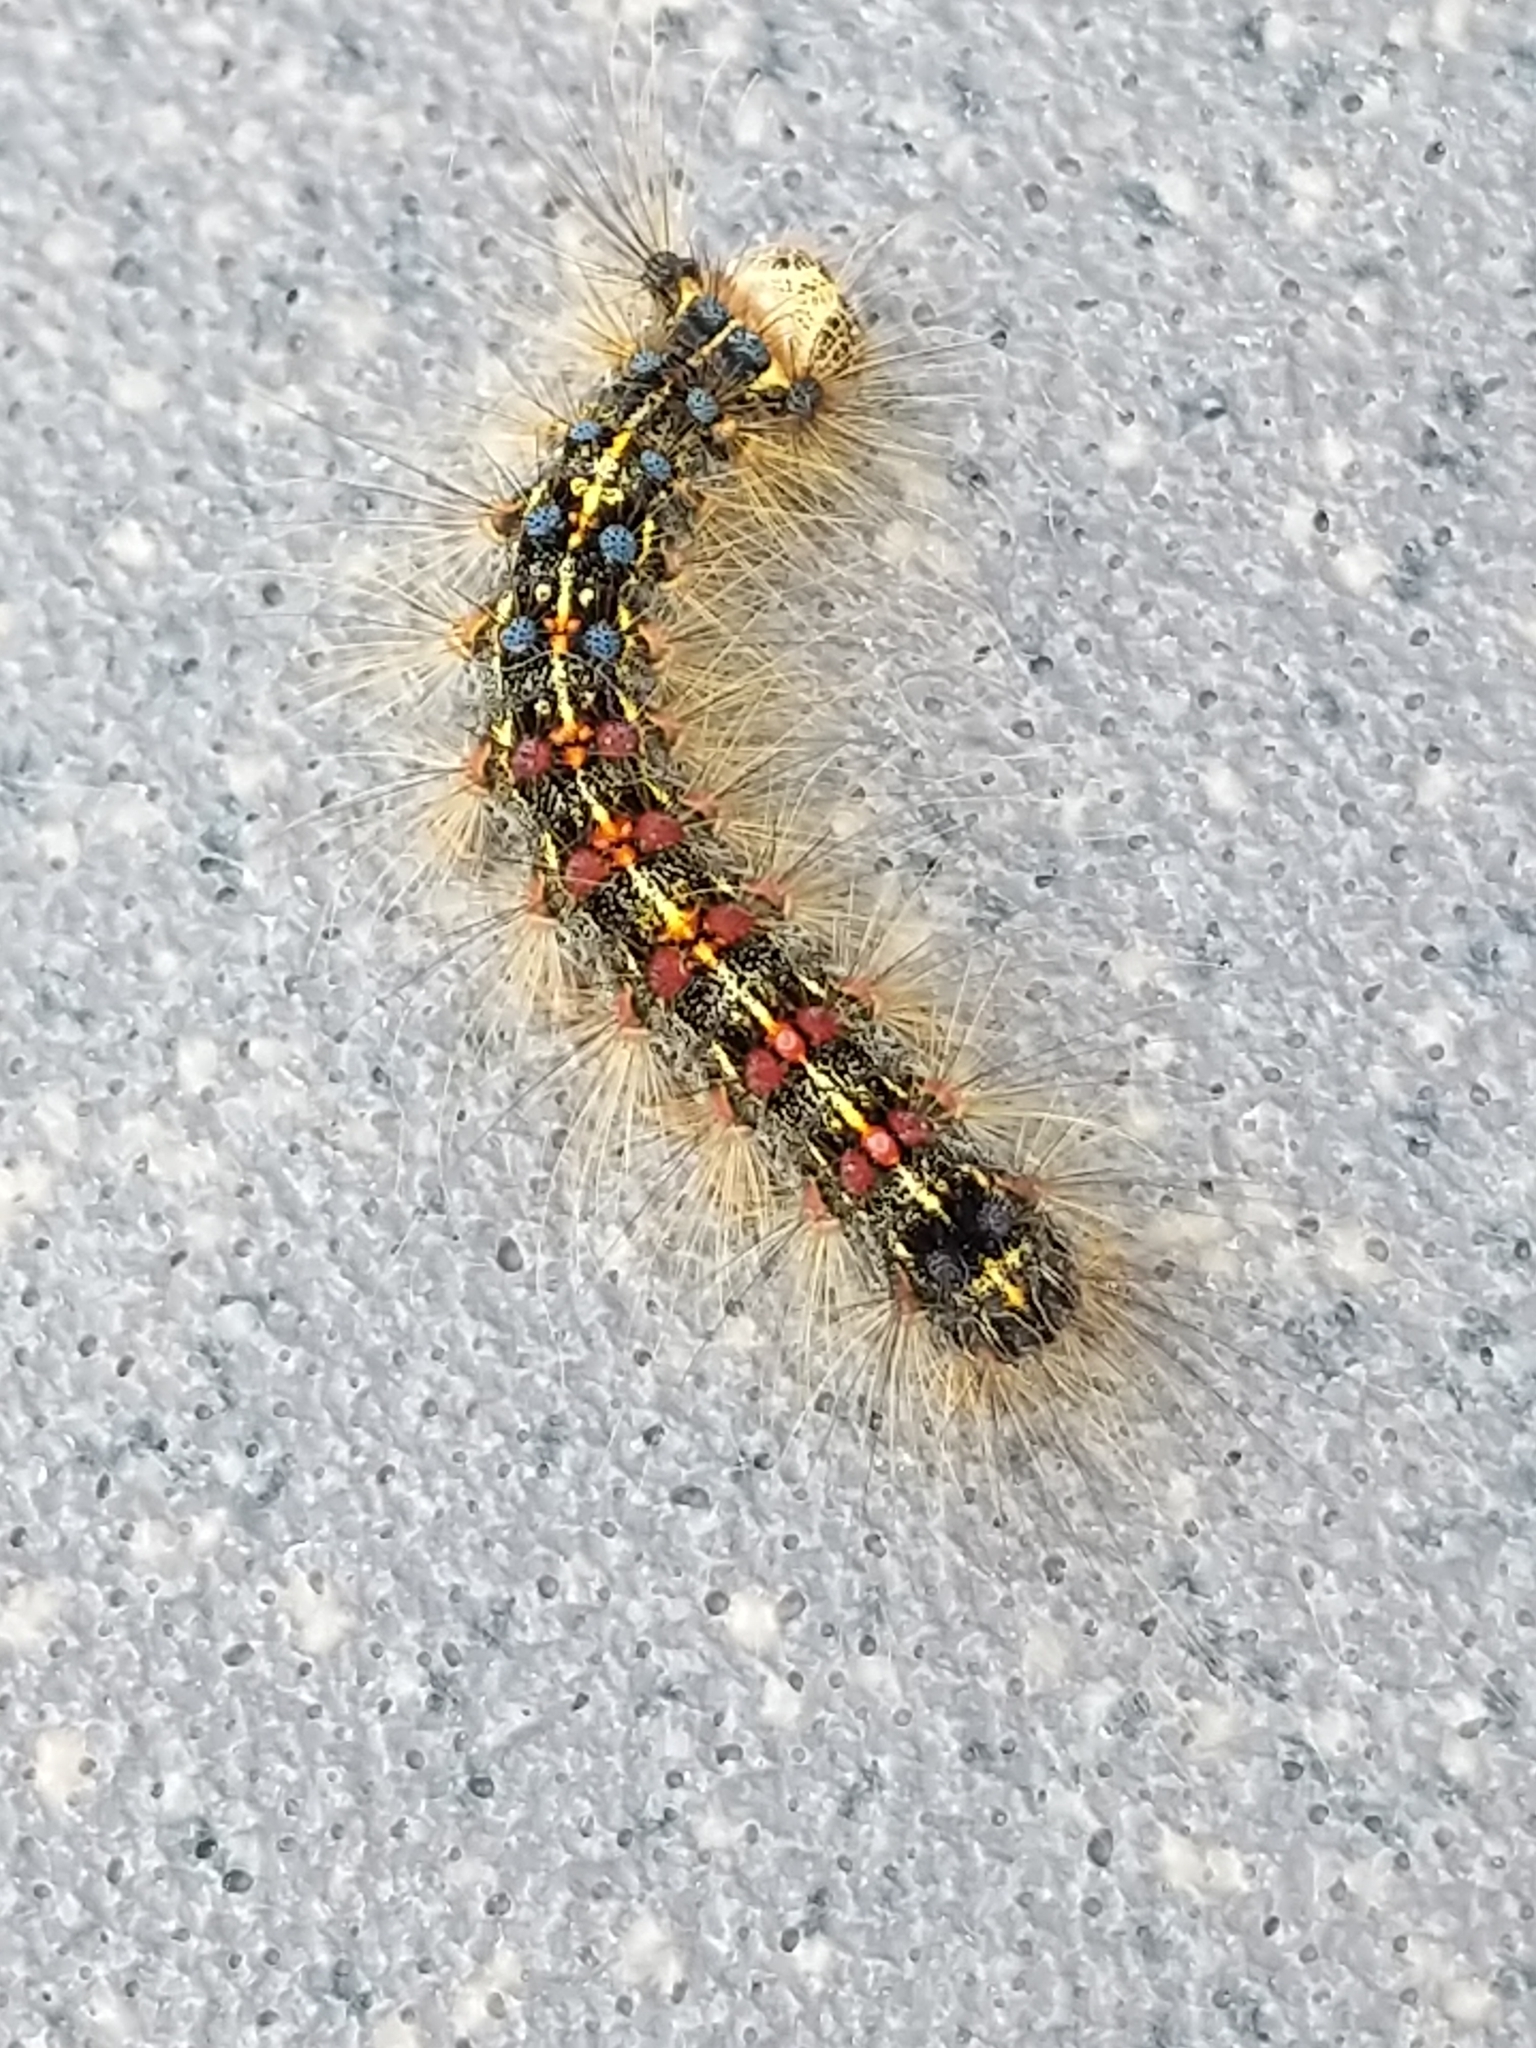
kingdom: Animalia
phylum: Arthropoda
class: Insecta
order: Lepidoptera
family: Erebidae
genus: Lymantria
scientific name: Lymantria dispar
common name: Gypsy moth
